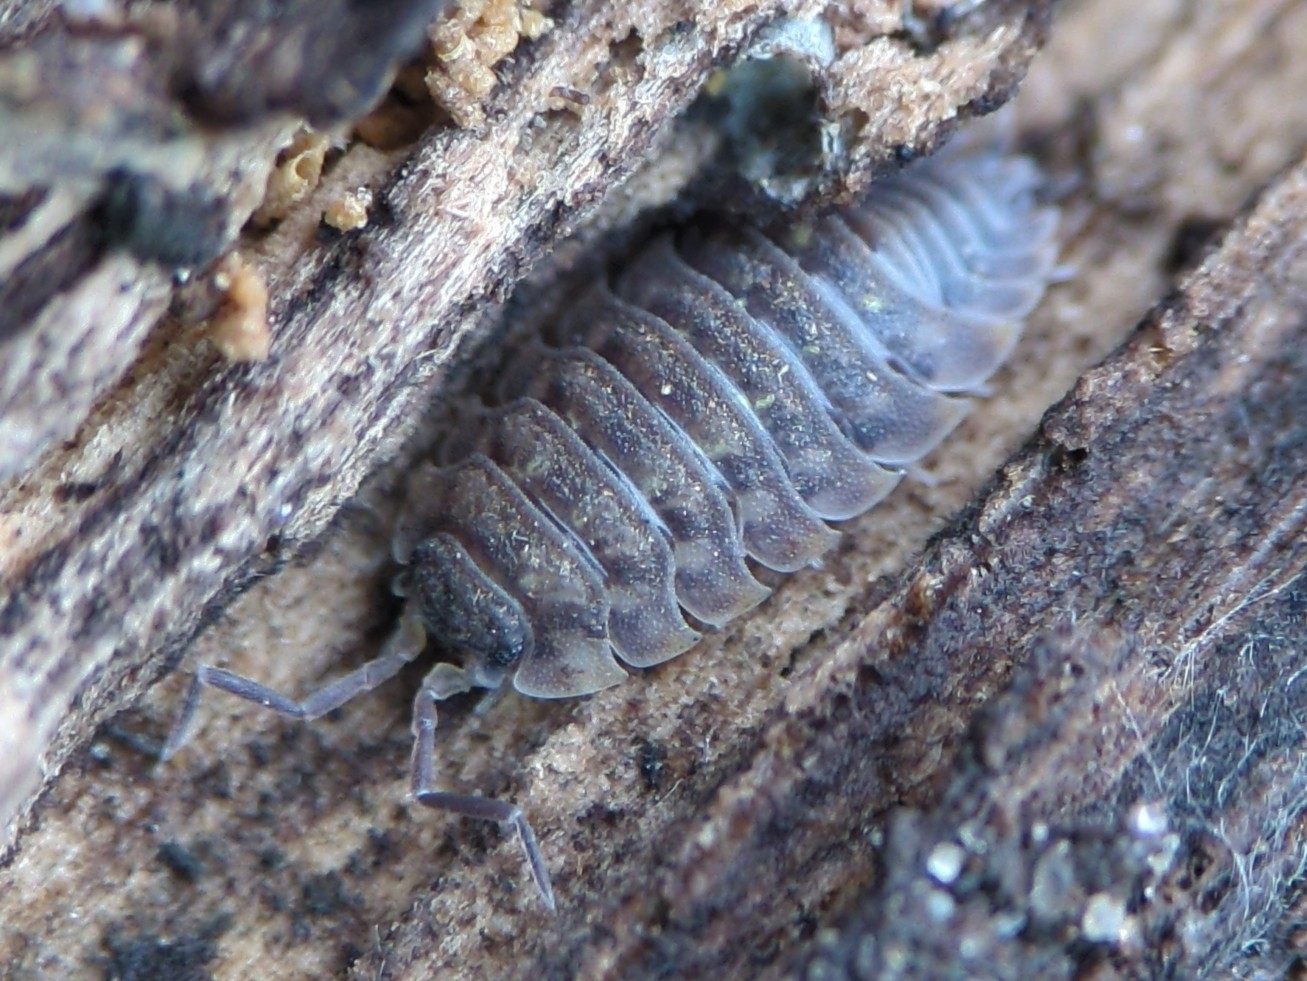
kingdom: Animalia
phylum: Arthropoda
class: Malacostraca
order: Isopoda
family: Oniscidae
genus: Oniscus
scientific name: Oniscus asellus
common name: Common shiny woodlouse
